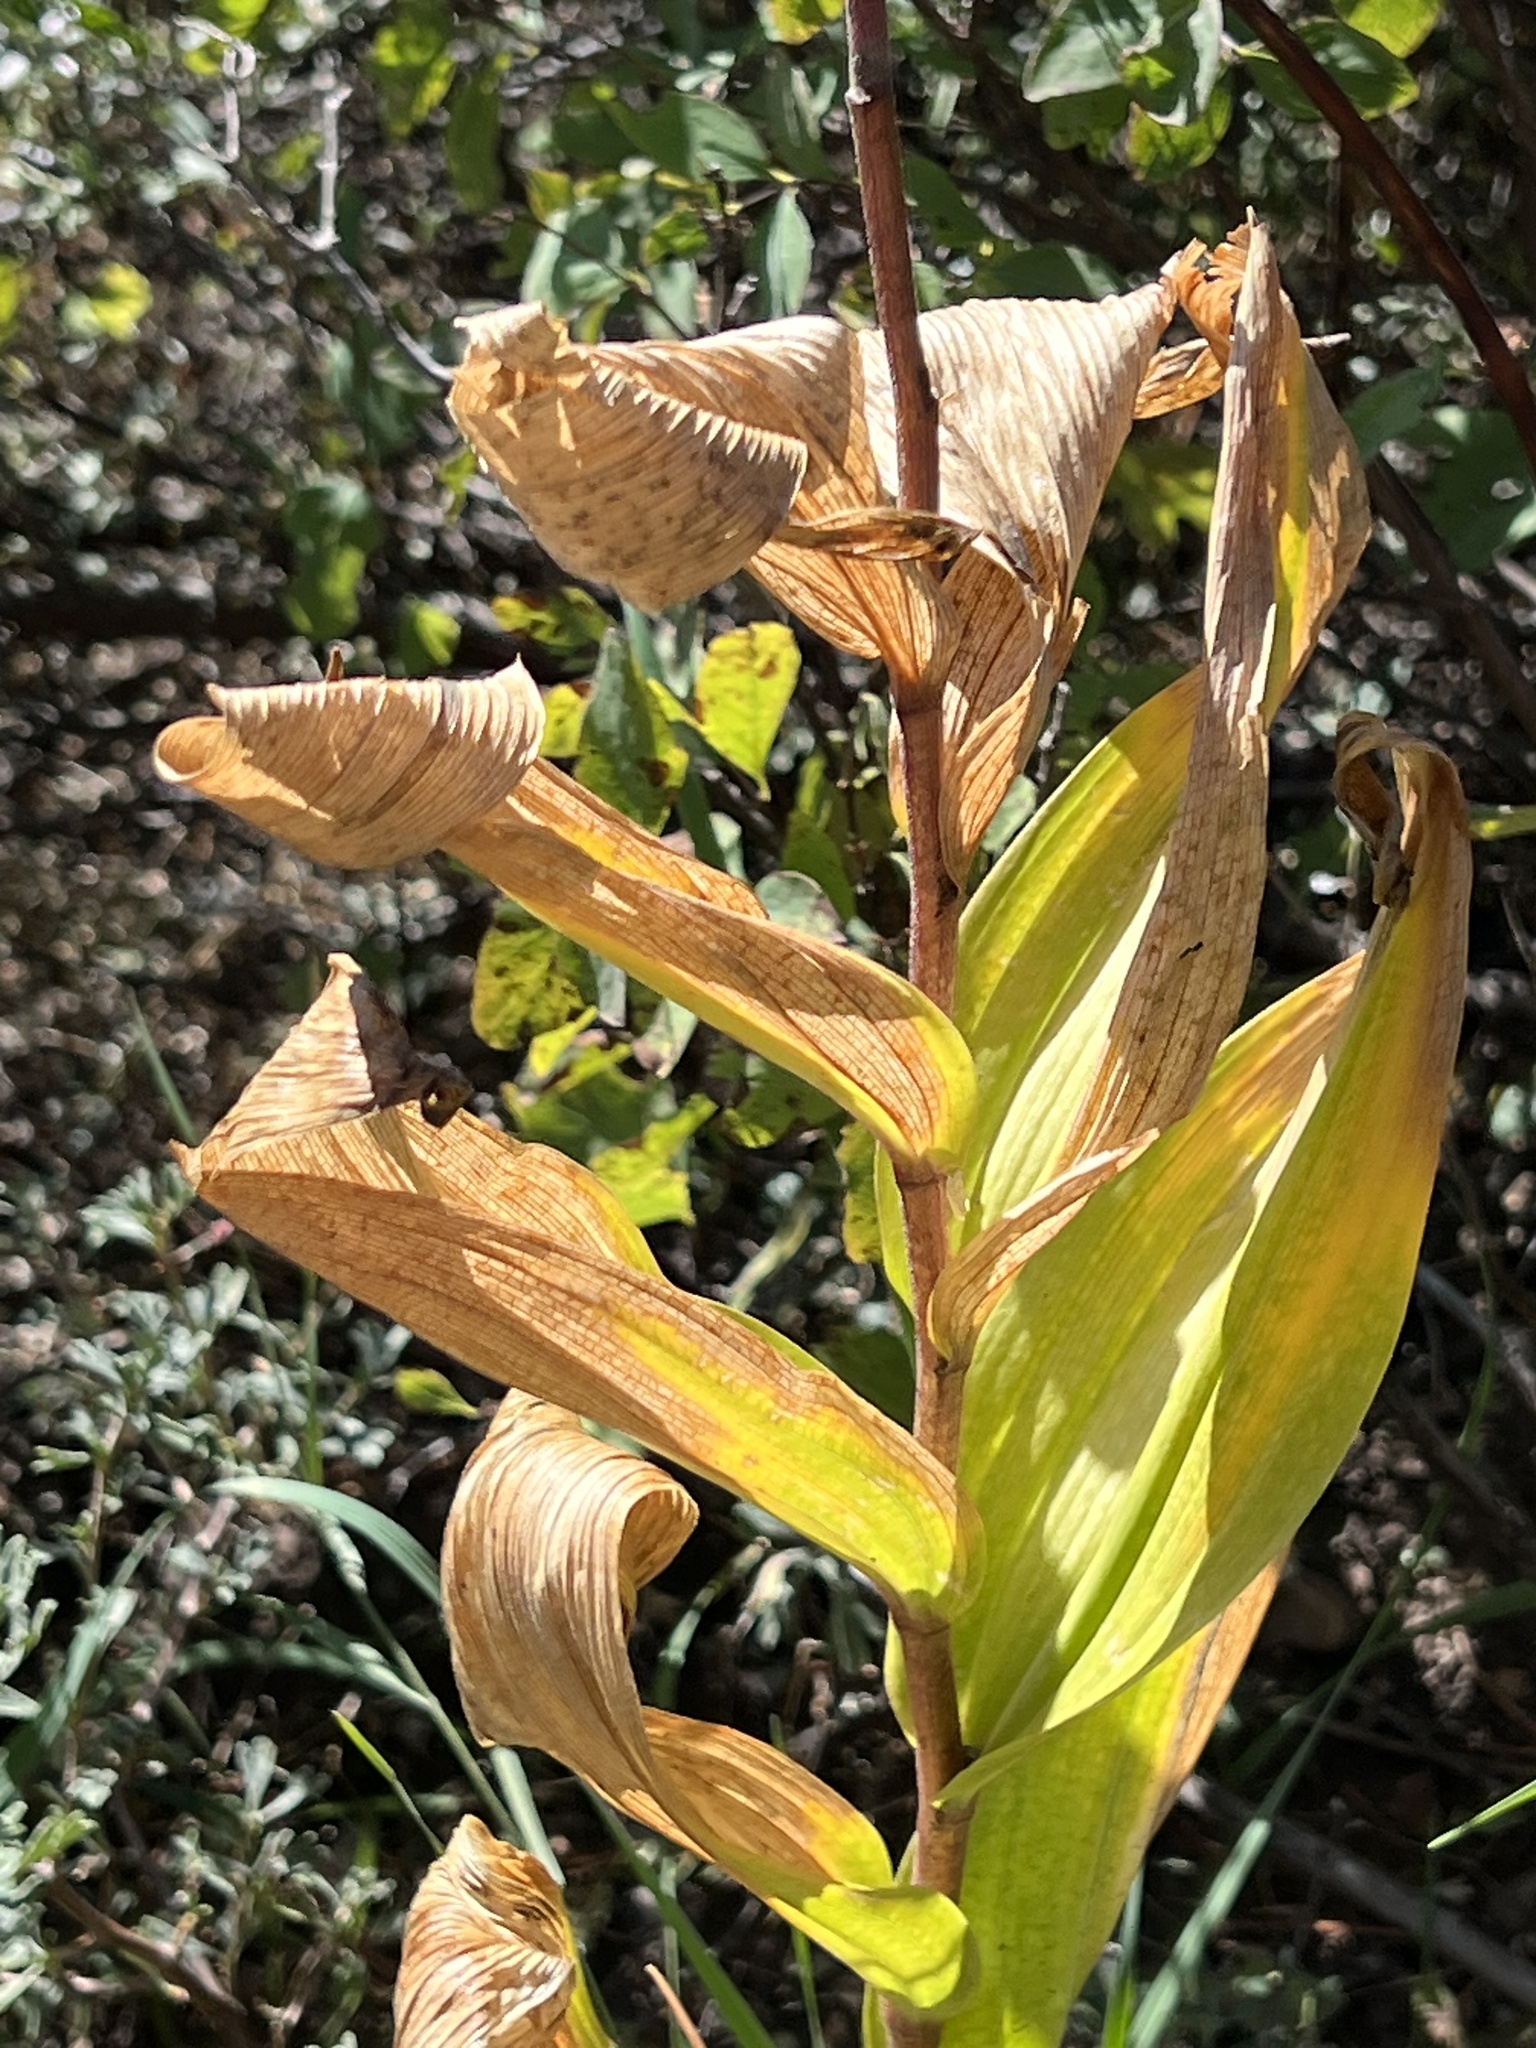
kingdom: Plantae
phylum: Tracheophyta
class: Liliopsida
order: Asparagales
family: Asparagaceae
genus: Maianthemum
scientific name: Maianthemum racemosum
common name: False spikenard
